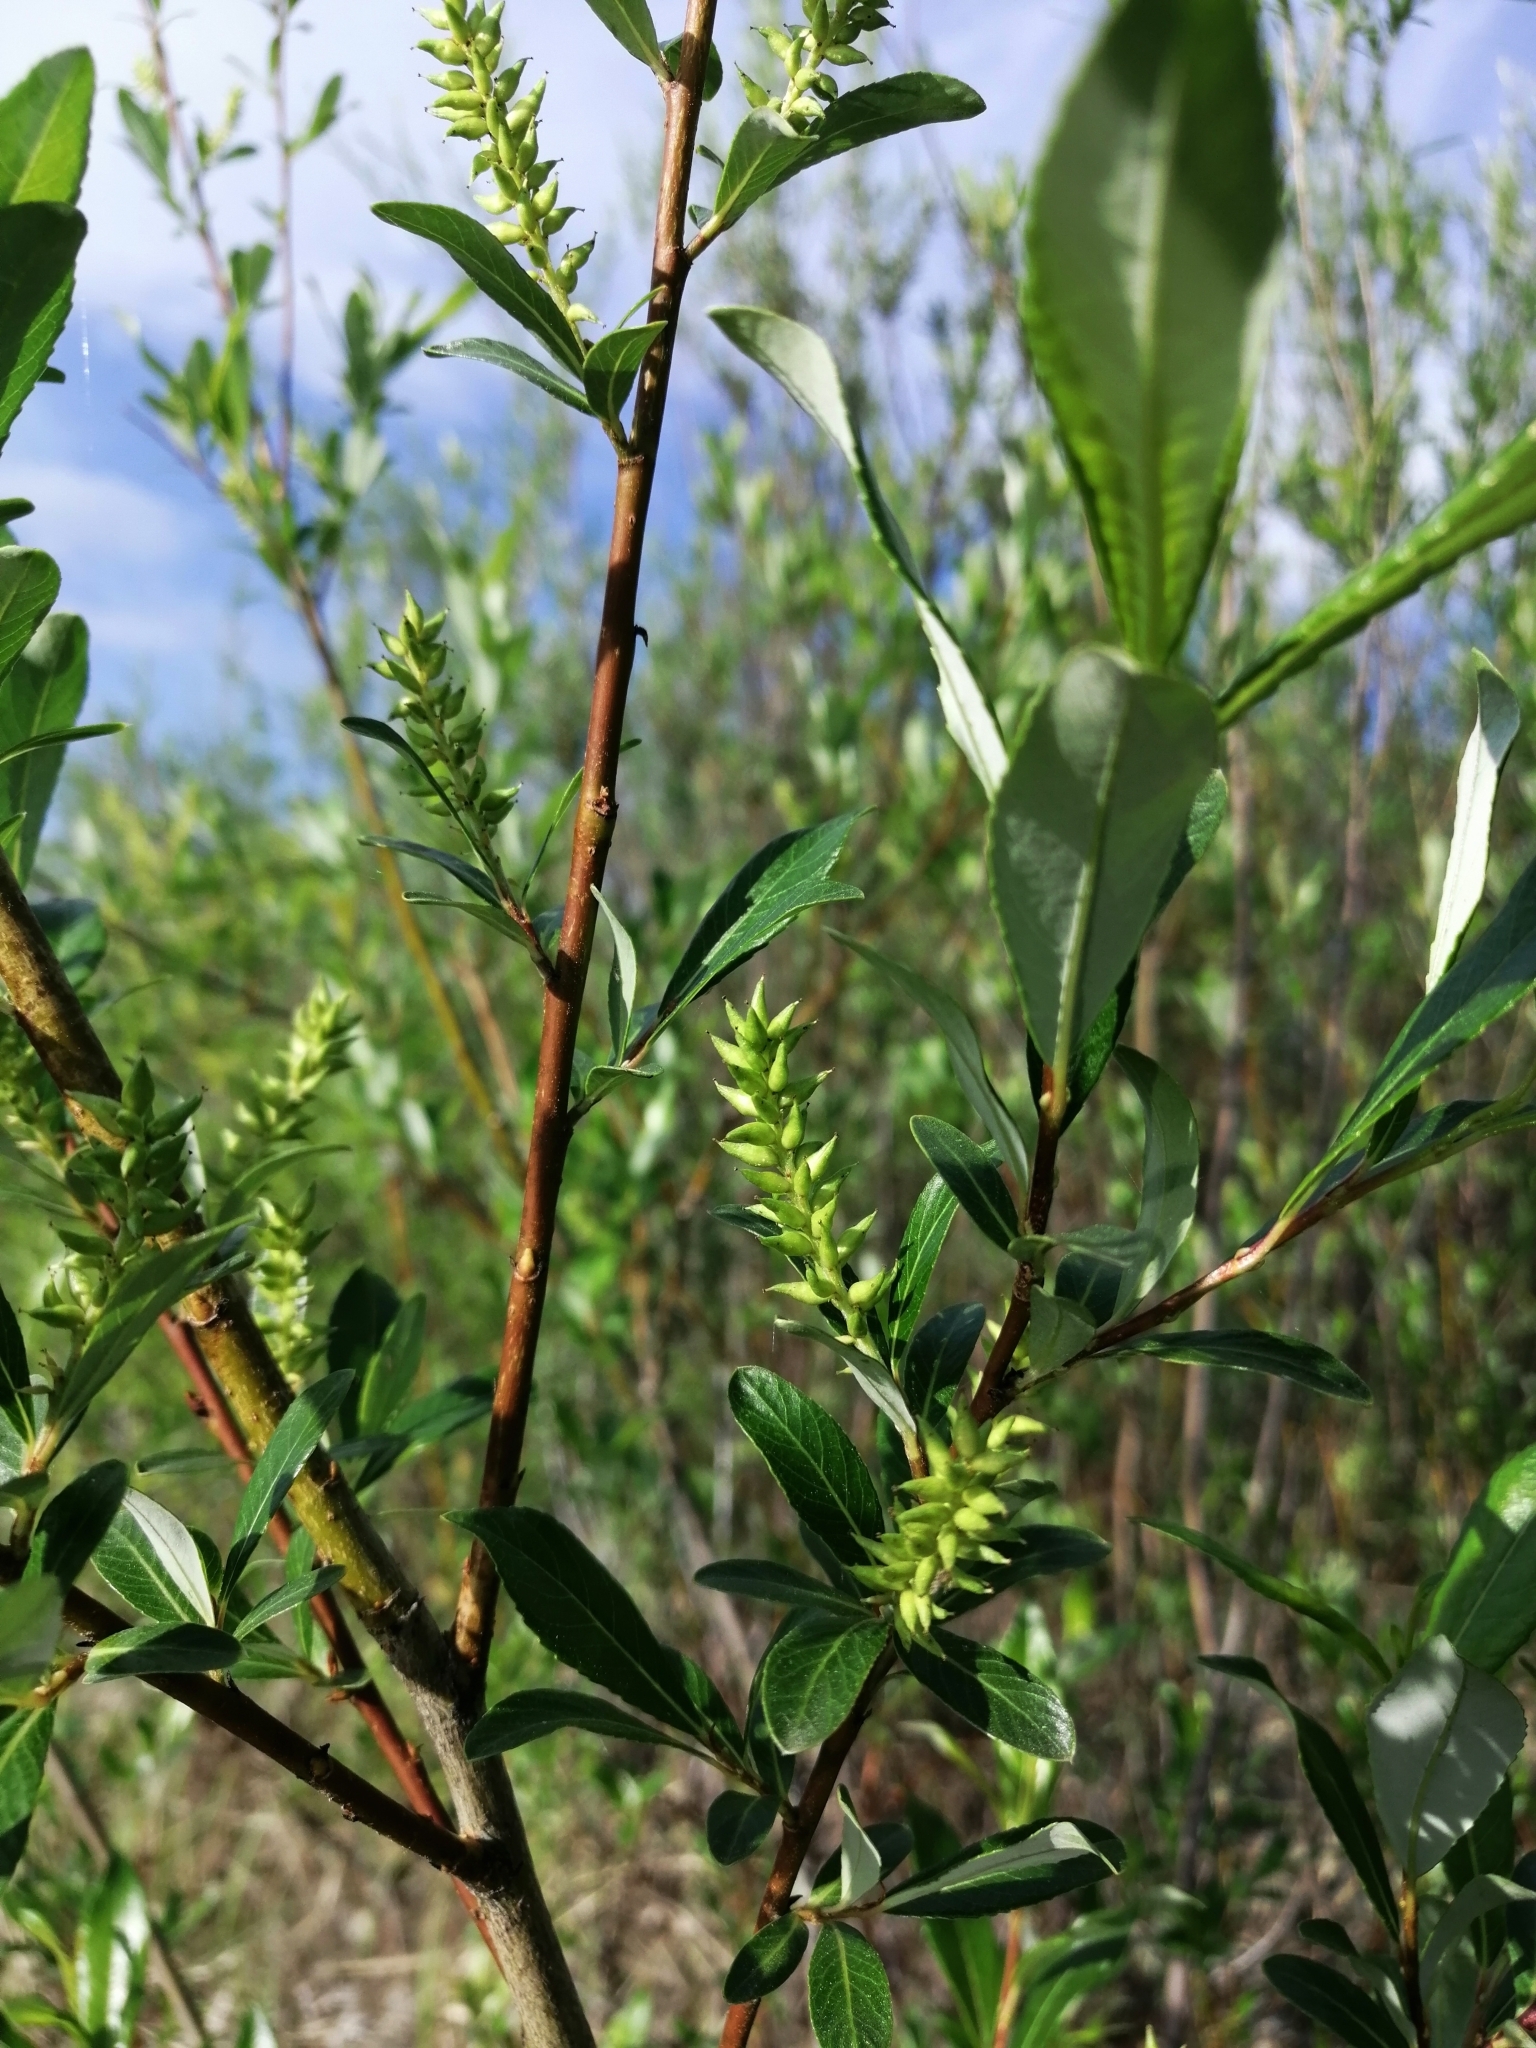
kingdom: Plantae
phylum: Tracheophyta
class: Magnoliopsida
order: Malpighiales
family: Salicaceae
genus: Salix
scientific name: Salix rhamnifolia
